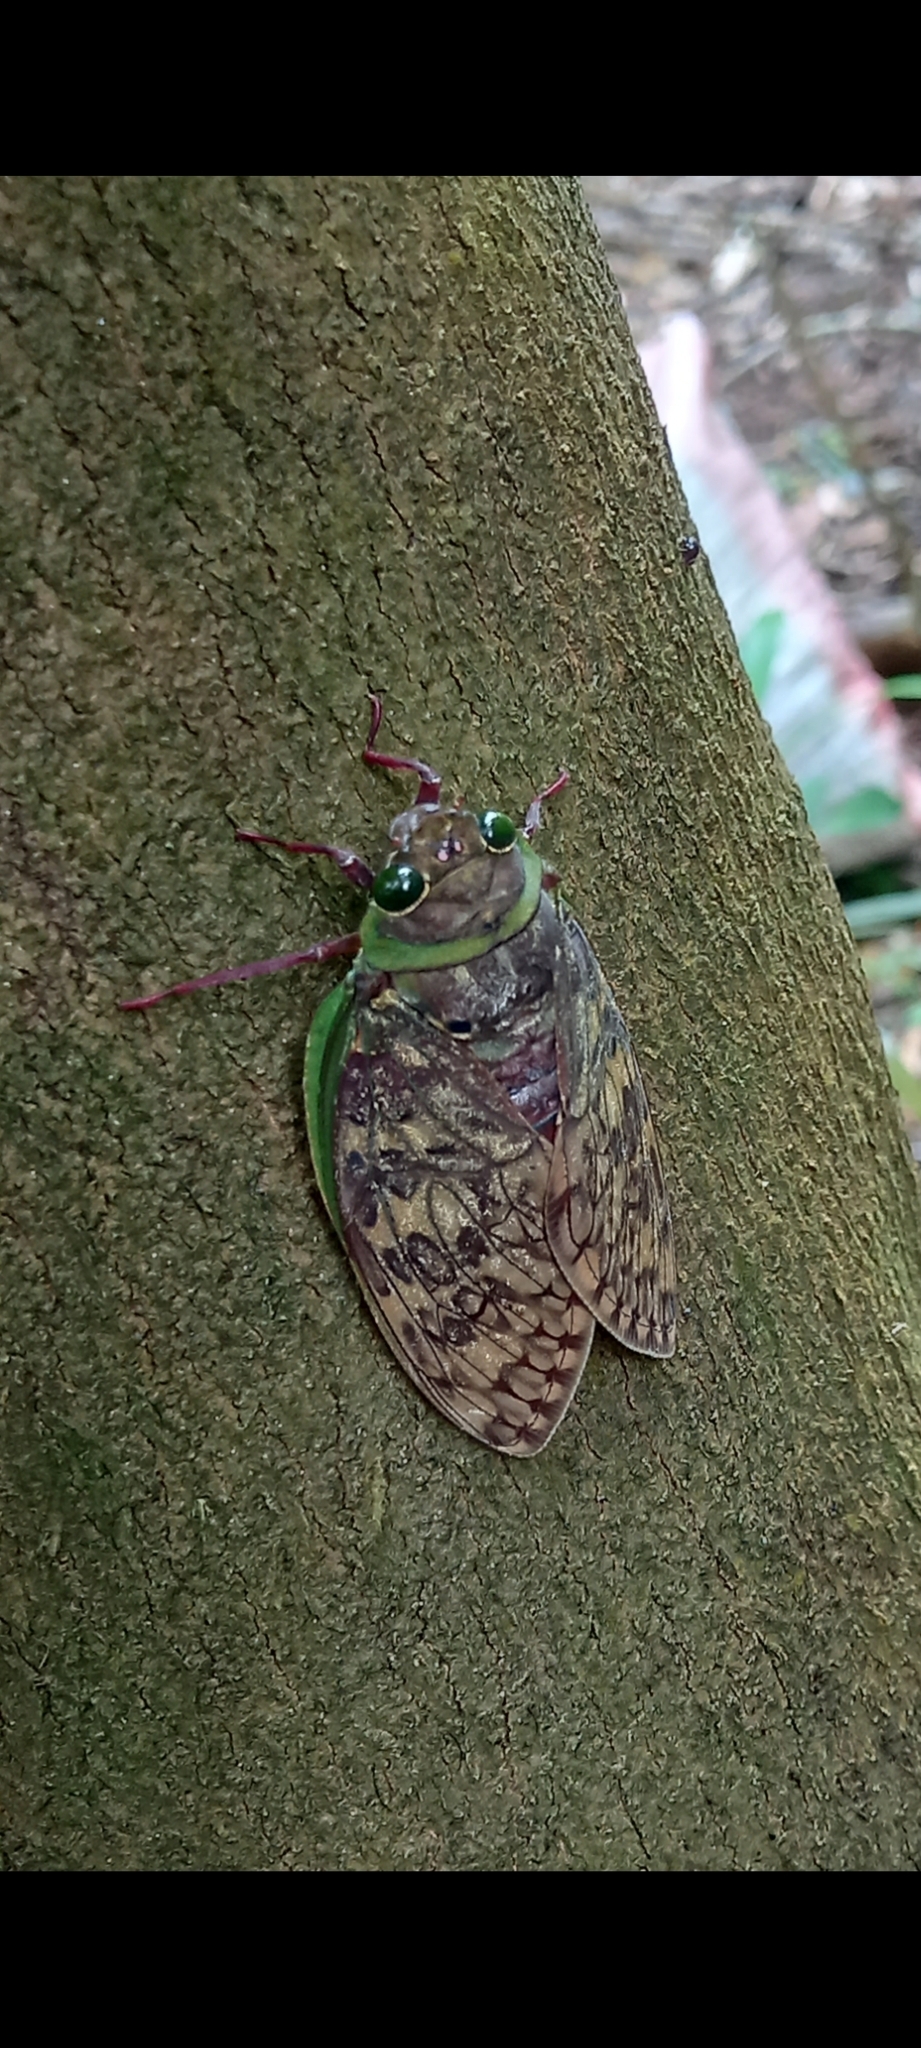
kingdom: Animalia
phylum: Arthropoda
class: Insecta
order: Hemiptera
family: Cicadidae
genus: Pycna
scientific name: Pycna strix
